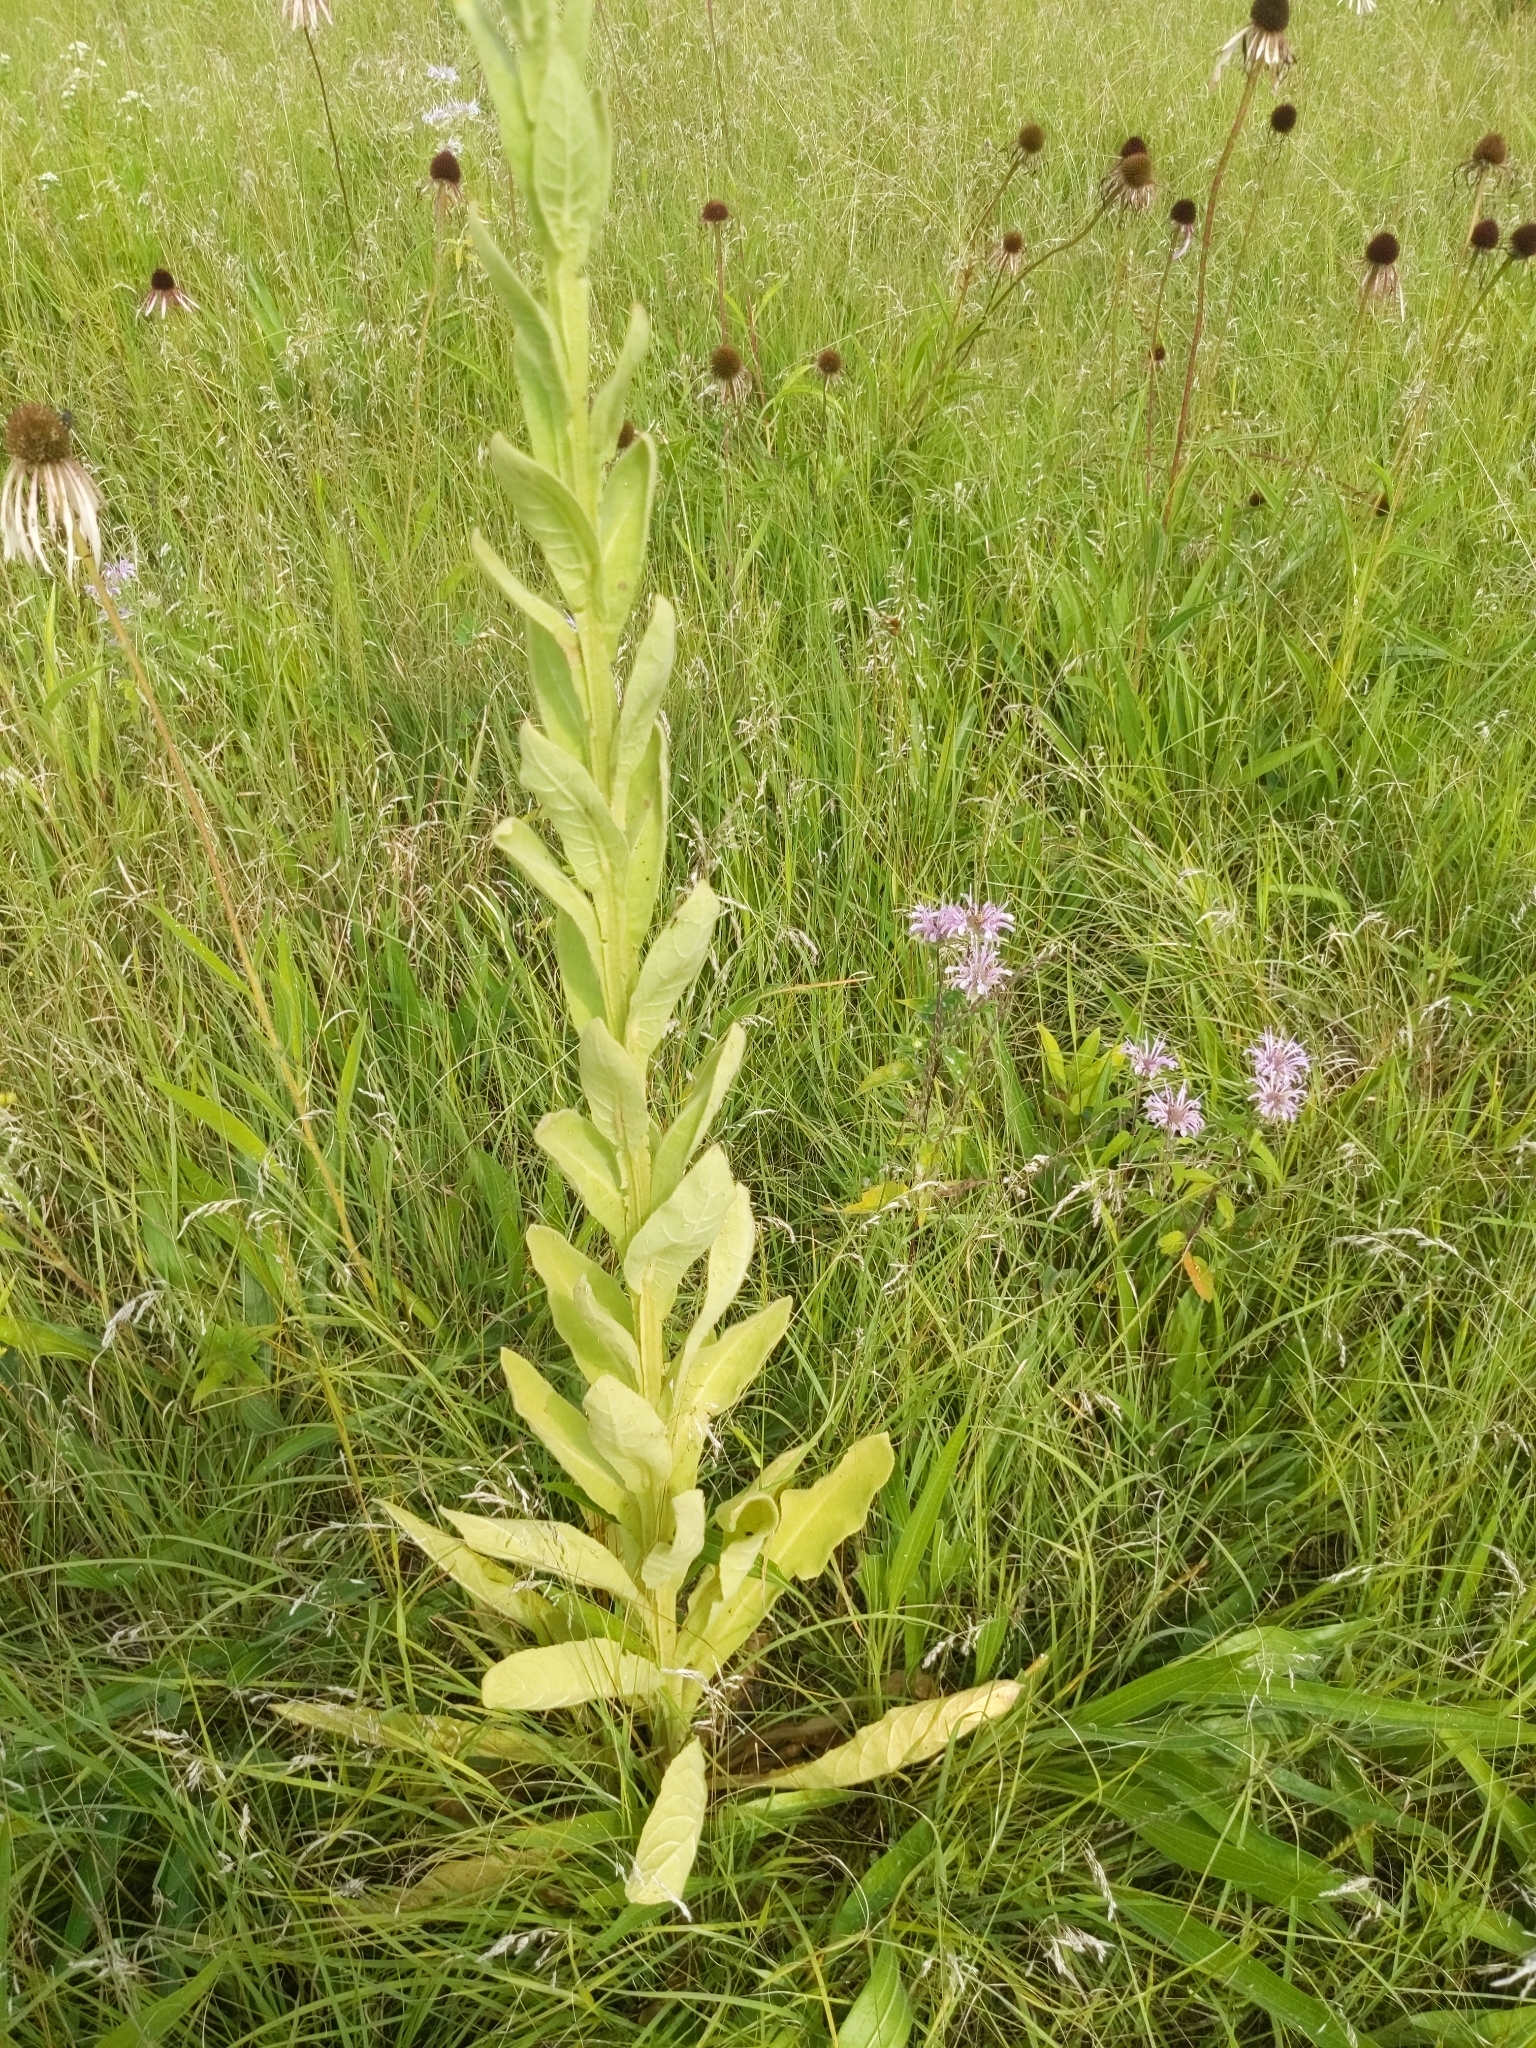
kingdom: Plantae
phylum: Tracheophyta
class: Magnoliopsida
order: Lamiales
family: Scrophulariaceae
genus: Verbascum
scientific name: Verbascum thapsus
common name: Common mullein
